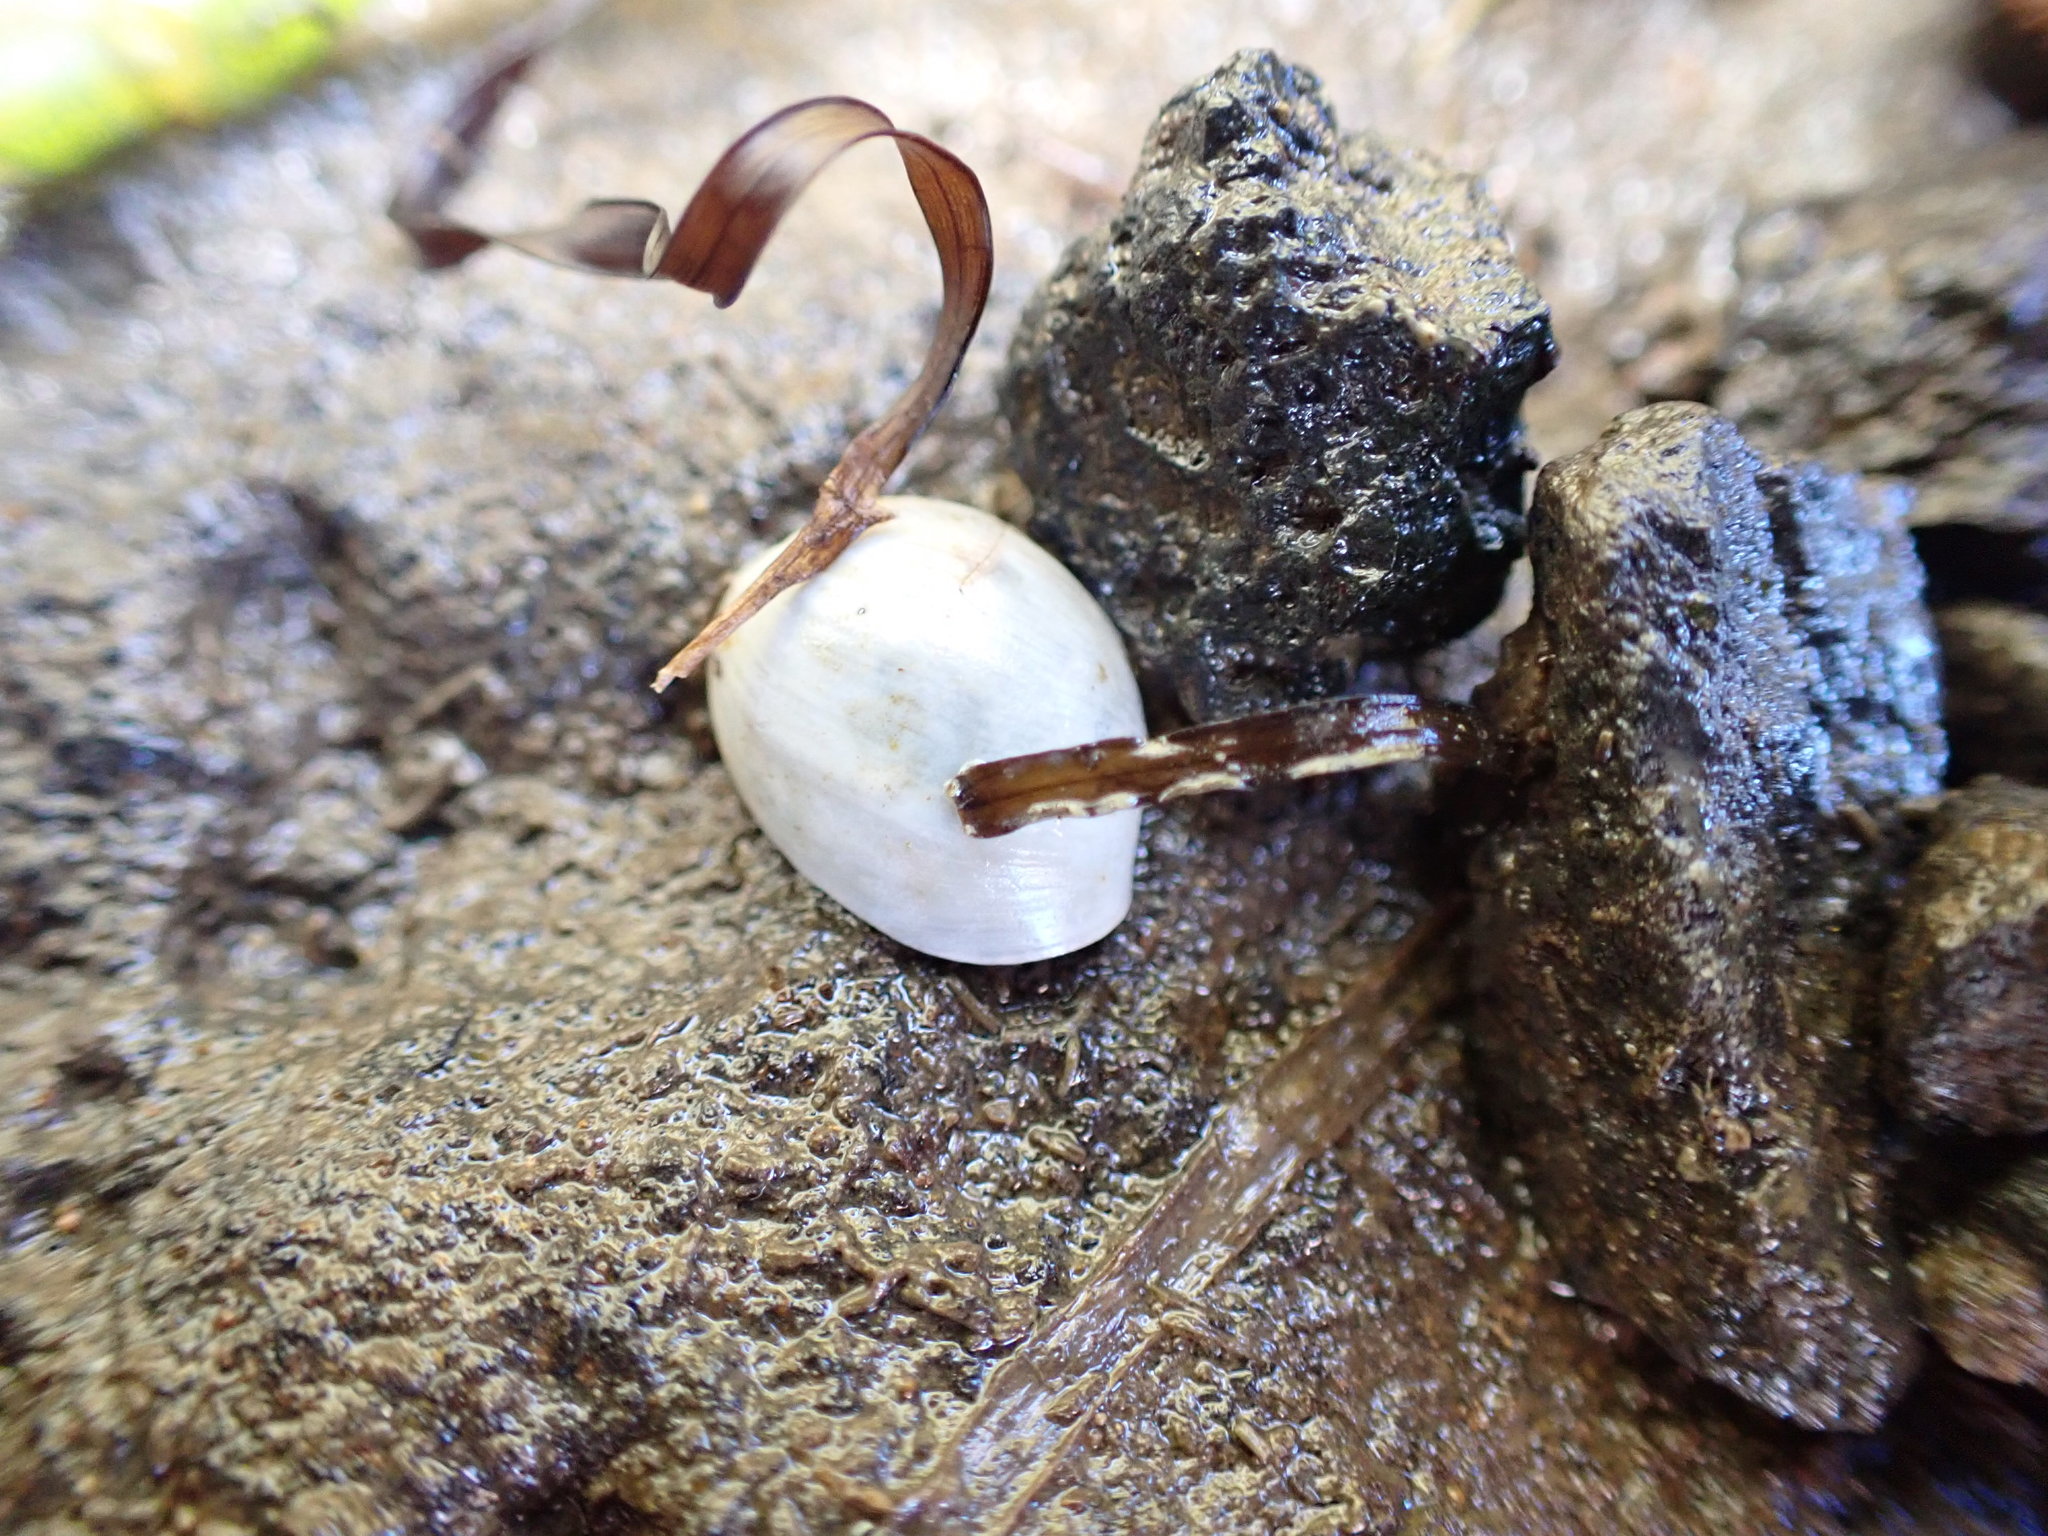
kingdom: Animalia
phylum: Mollusca
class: Gastropoda
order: Cephalaspidea
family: Haminoeidae
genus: Papawera
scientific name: Papawera zelandiae
